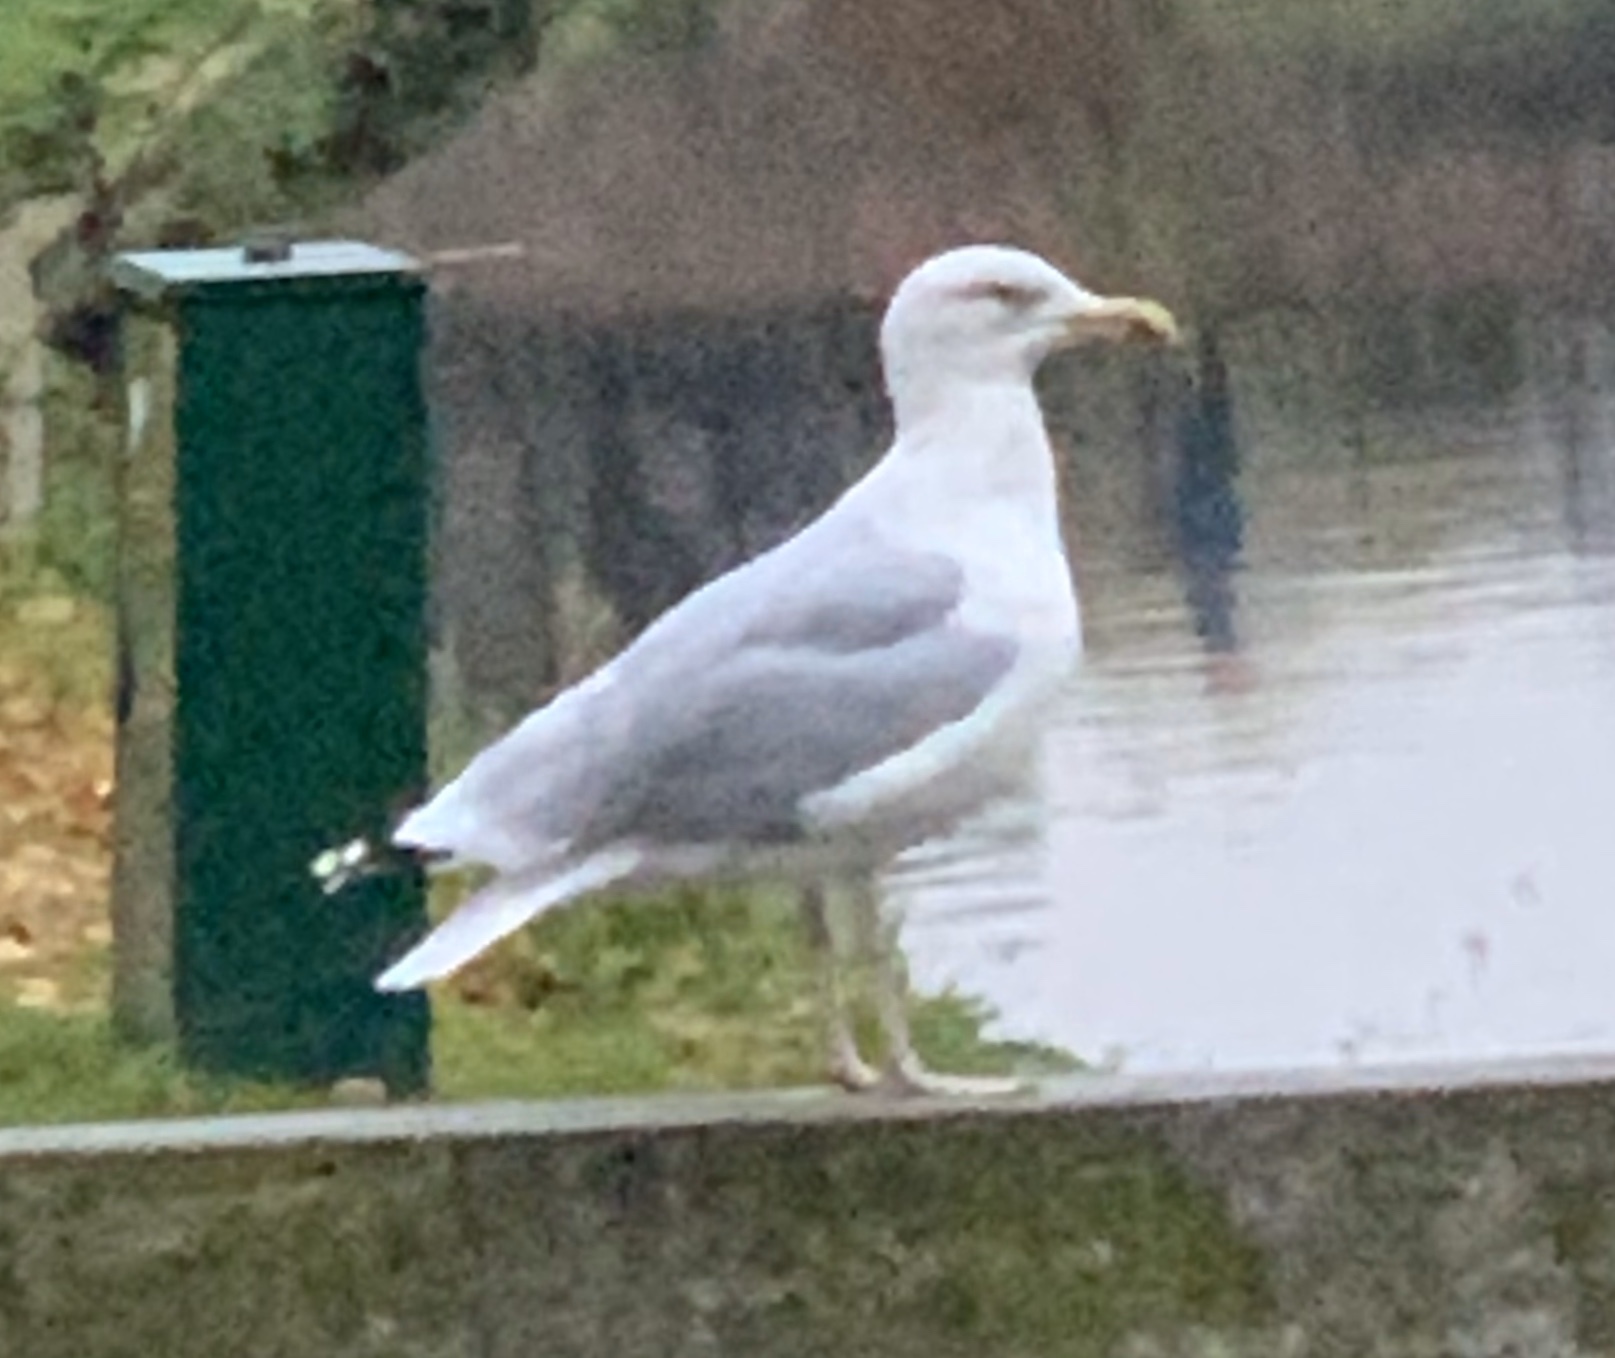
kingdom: Animalia
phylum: Chordata
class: Aves
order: Charadriiformes
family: Laridae
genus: Larus
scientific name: Larus argentatus
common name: Herring gull
